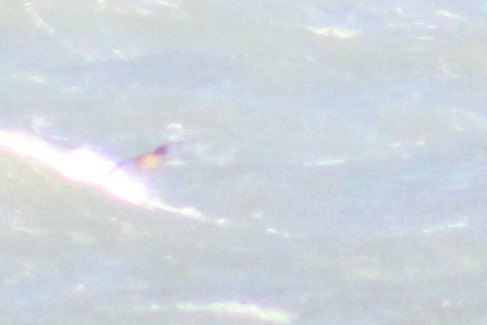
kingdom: Animalia
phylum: Chordata
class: Aves
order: Charadriiformes
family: Stercorariidae
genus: Stercorarius
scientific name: Stercorarius skua
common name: Great skua
